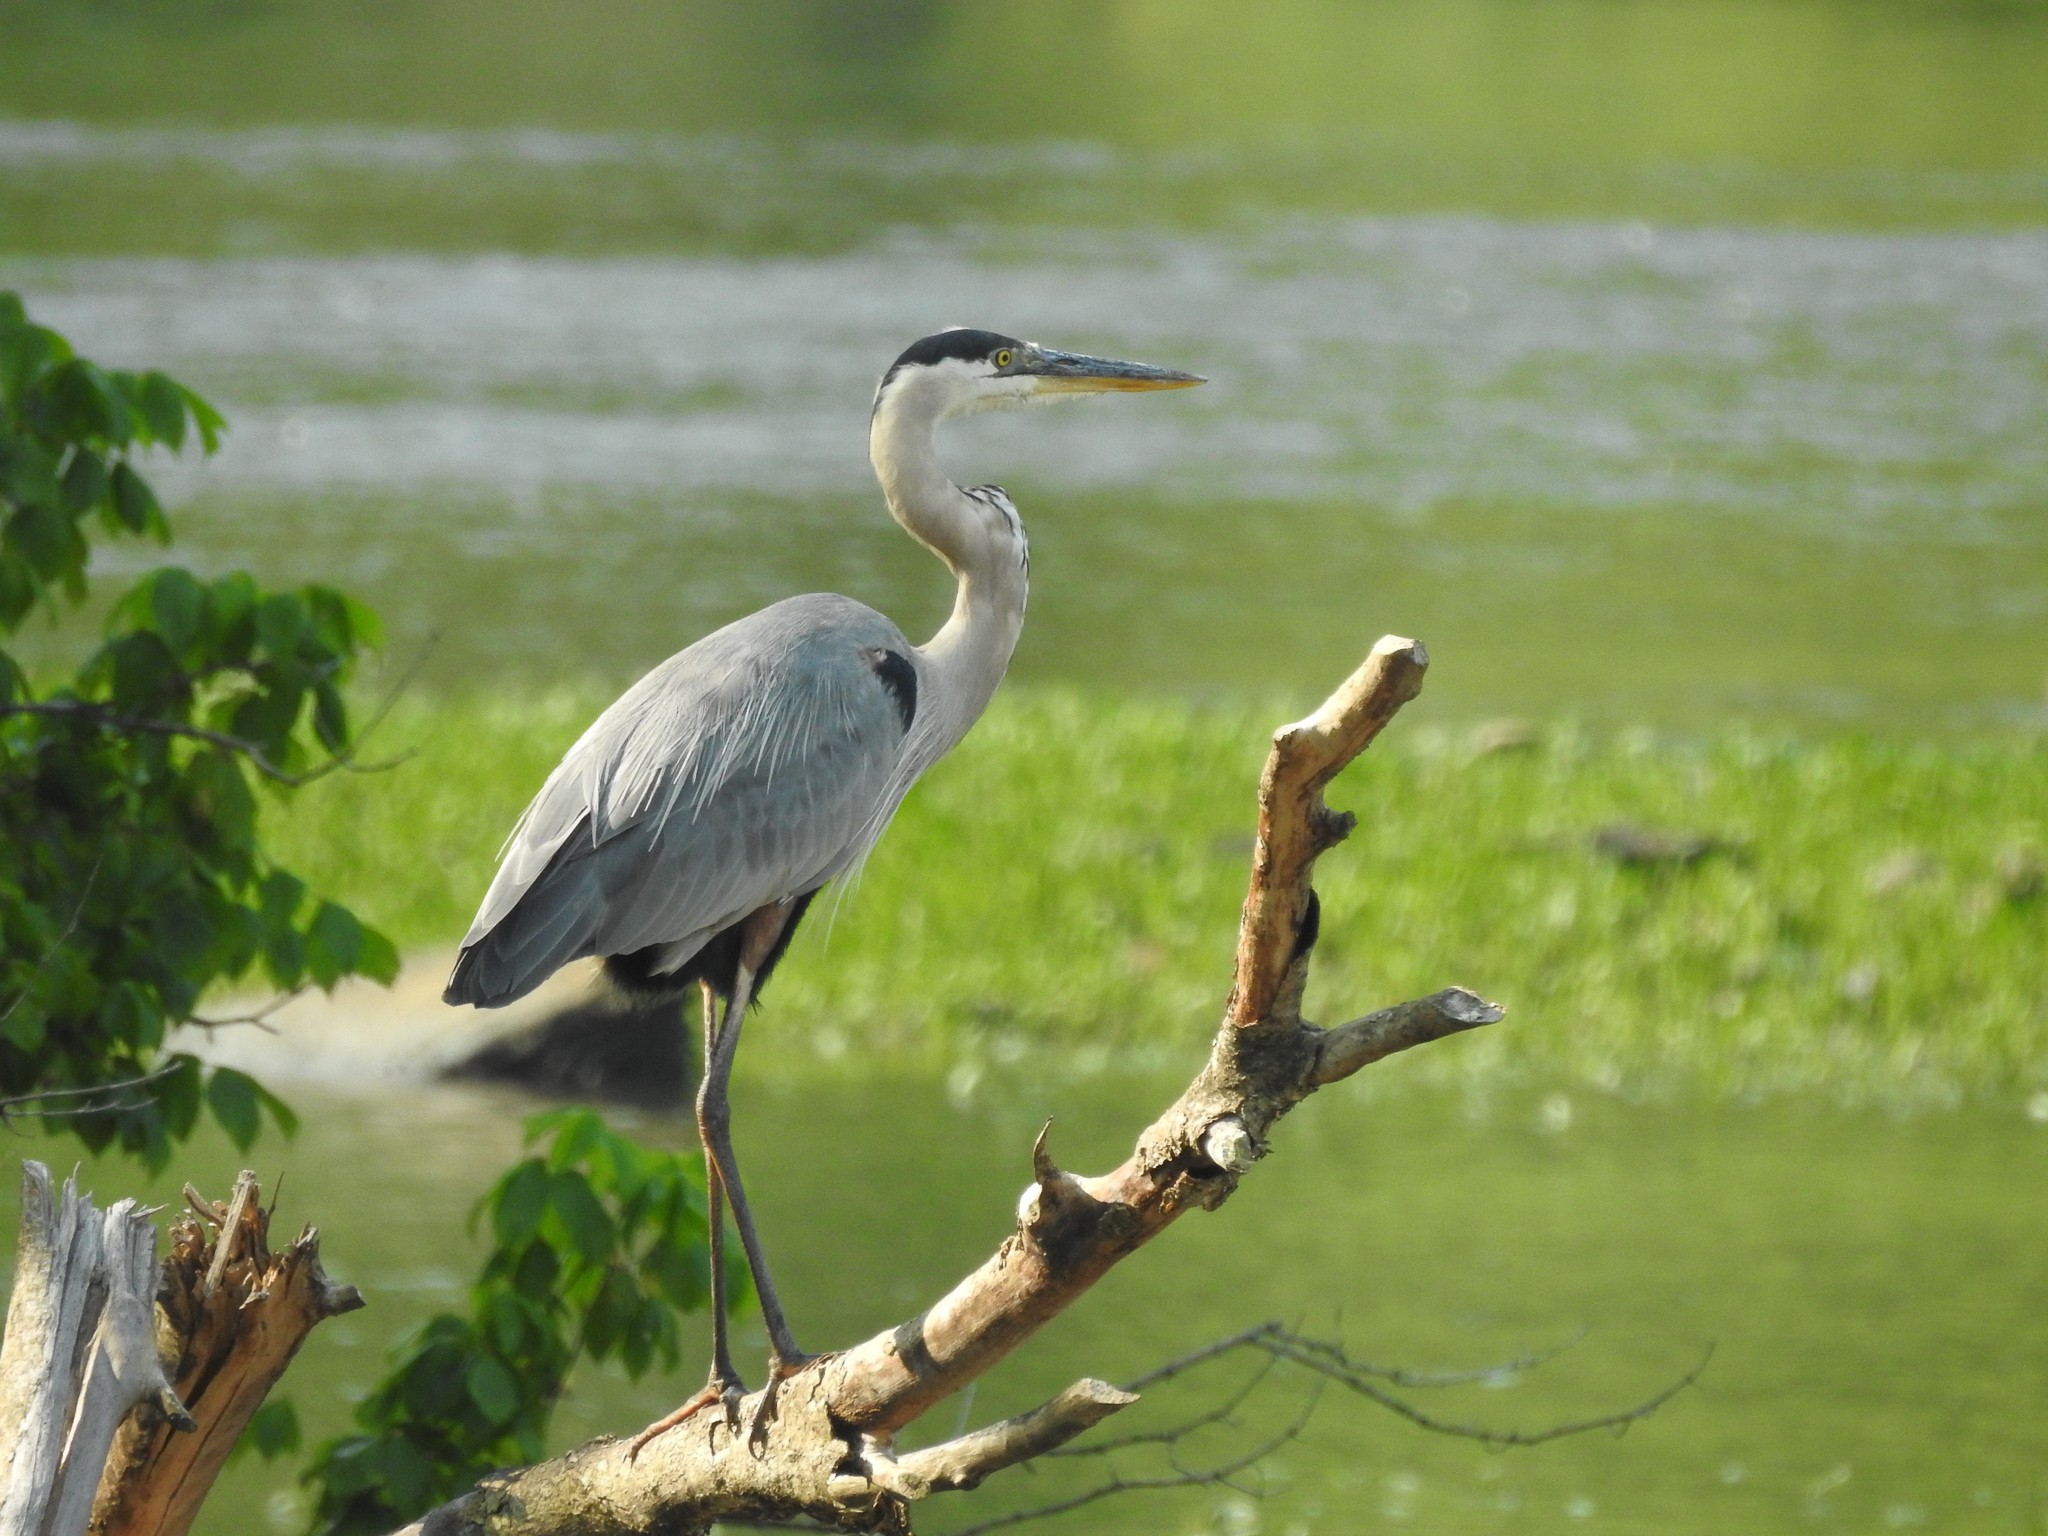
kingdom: Animalia
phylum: Chordata
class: Aves
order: Pelecaniformes
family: Ardeidae
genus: Ardea
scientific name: Ardea herodias
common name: Great blue heron
